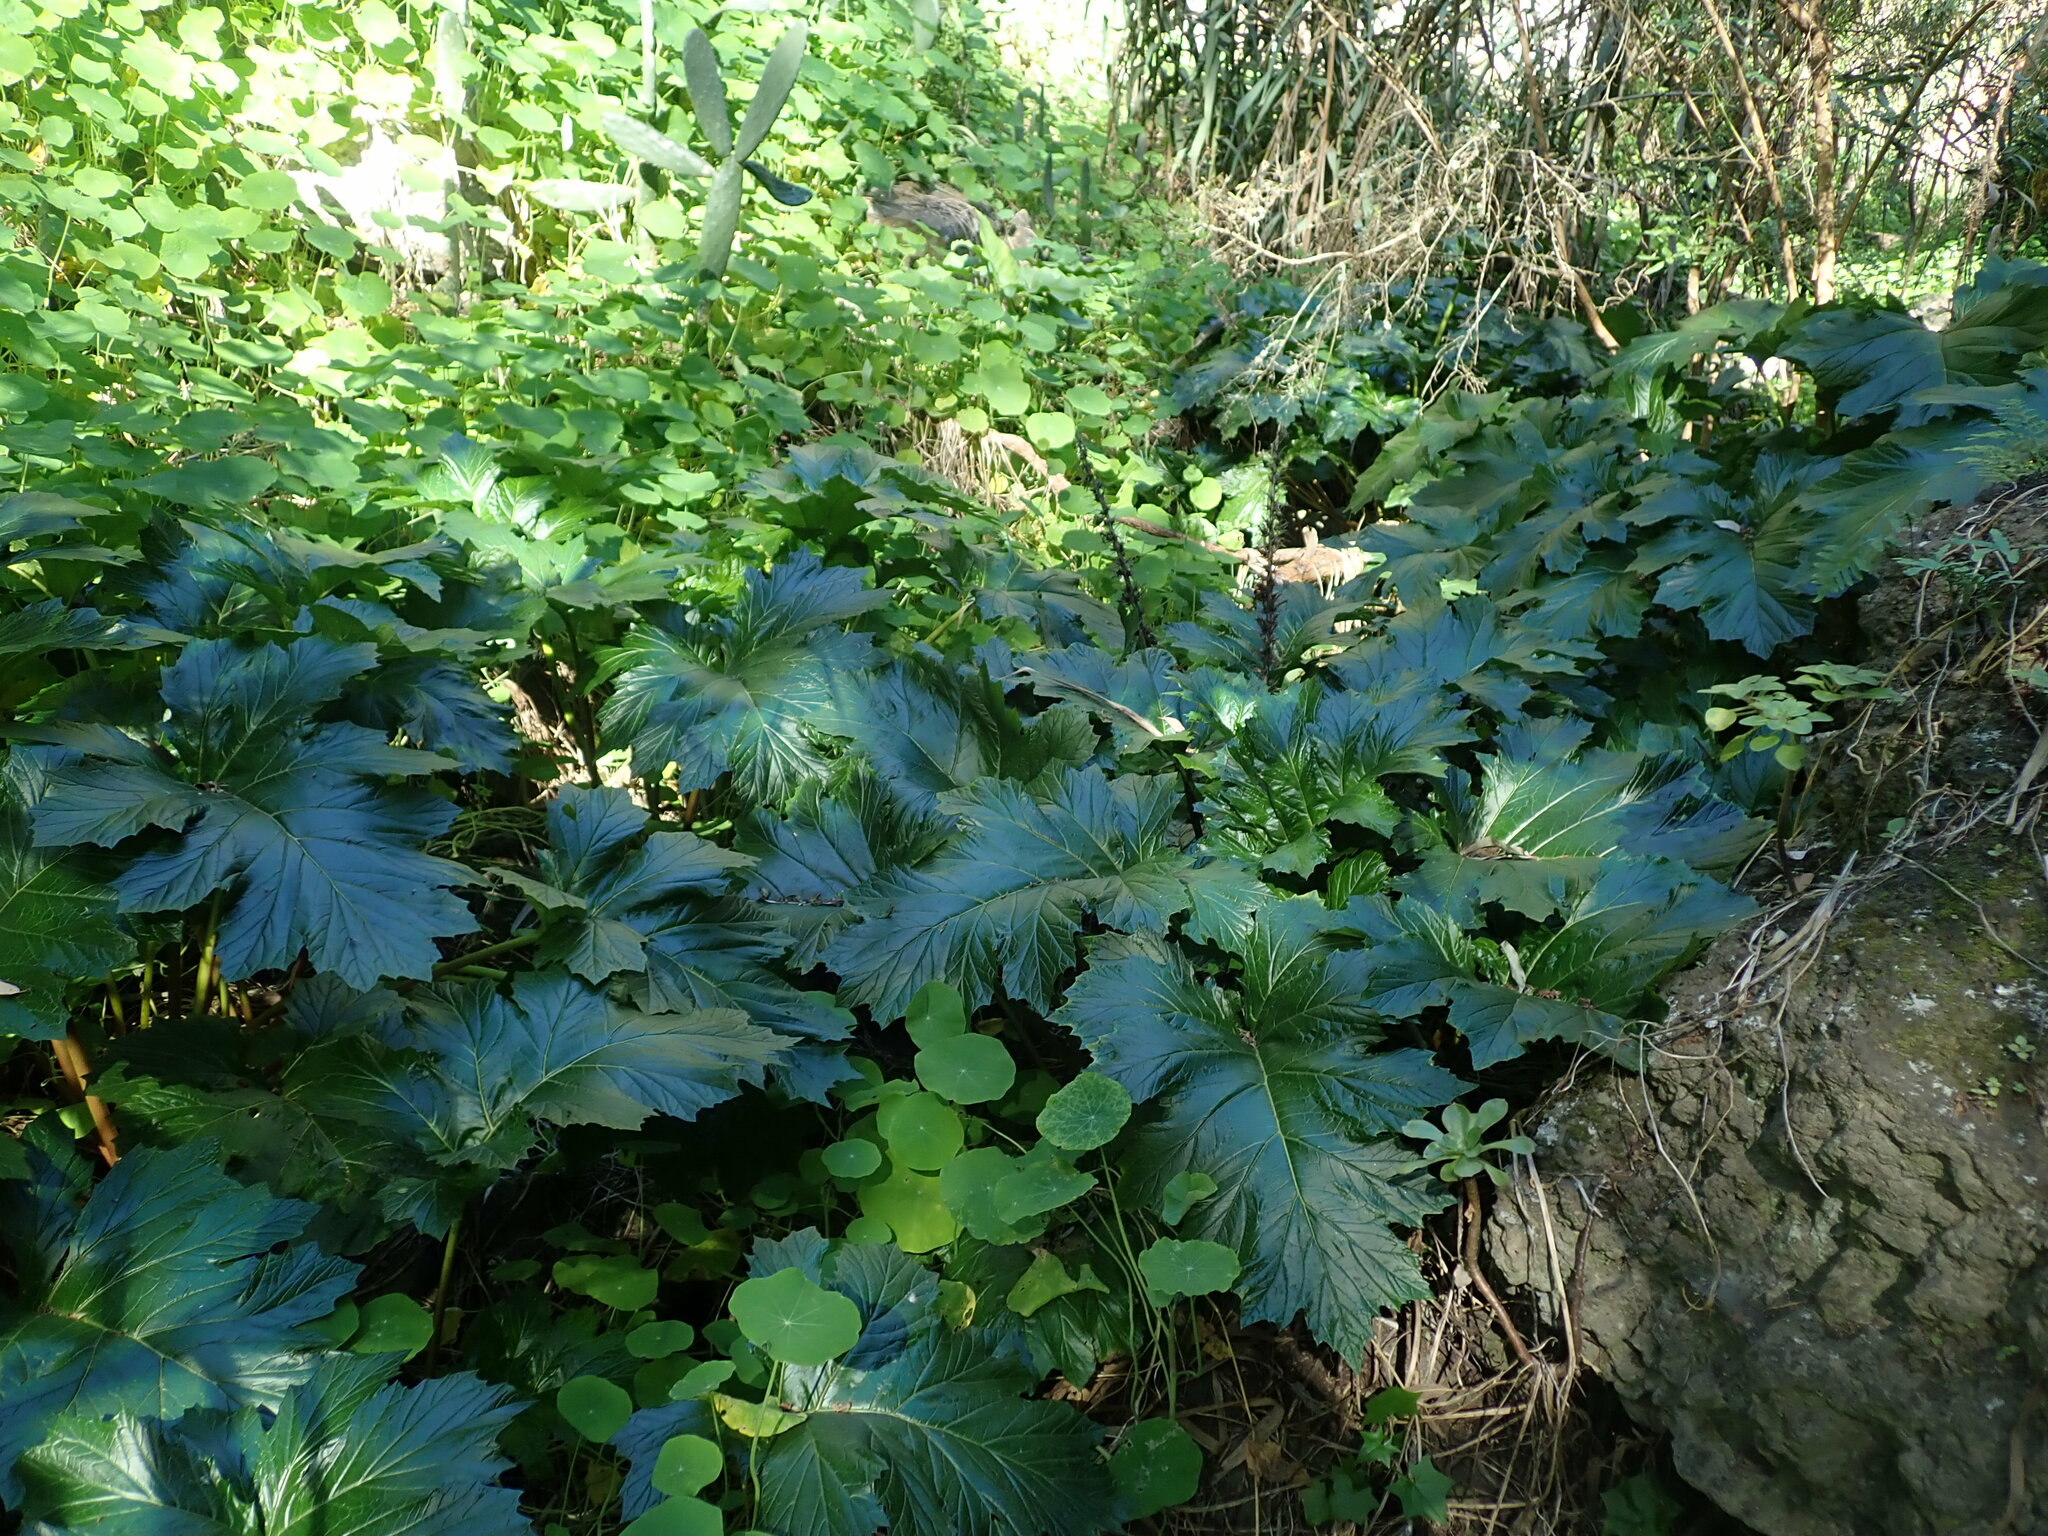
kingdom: Plantae
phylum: Tracheophyta
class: Magnoliopsida
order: Lamiales
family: Acanthaceae
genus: Acanthus
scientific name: Acanthus mollis
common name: Bear's-breech
